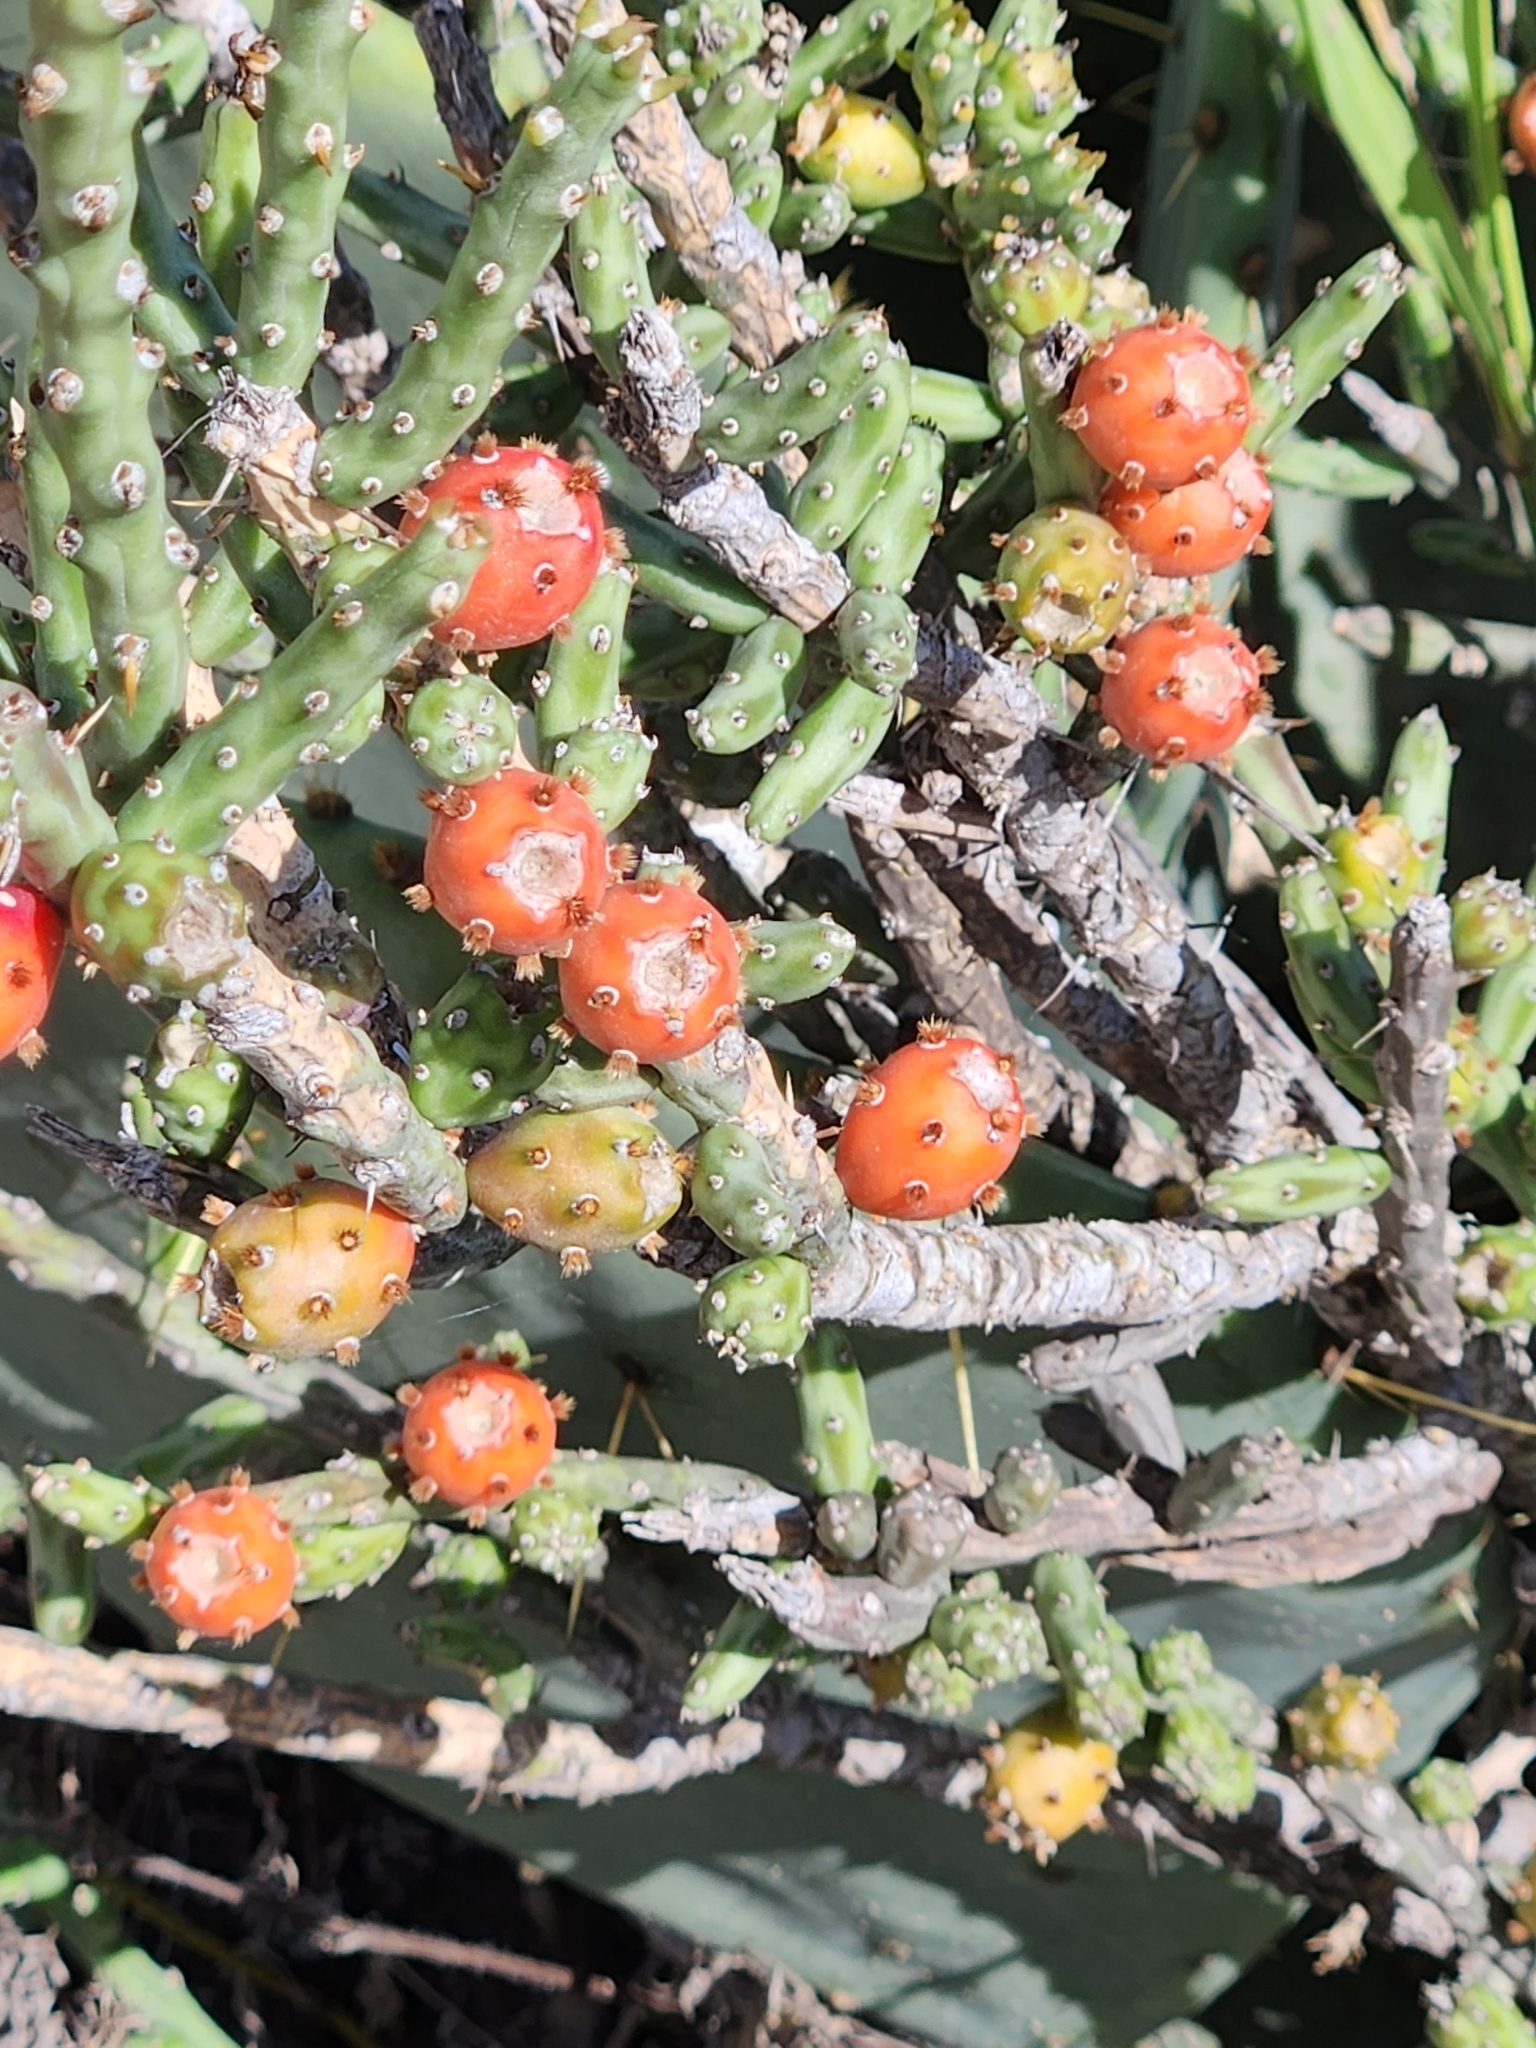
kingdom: Plantae
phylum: Tracheophyta
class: Magnoliopsida
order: Caryophyllales
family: Cactaceae
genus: Cylindropuntia
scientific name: Cylindropuntia leptocaulis
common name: Christmas cactus
